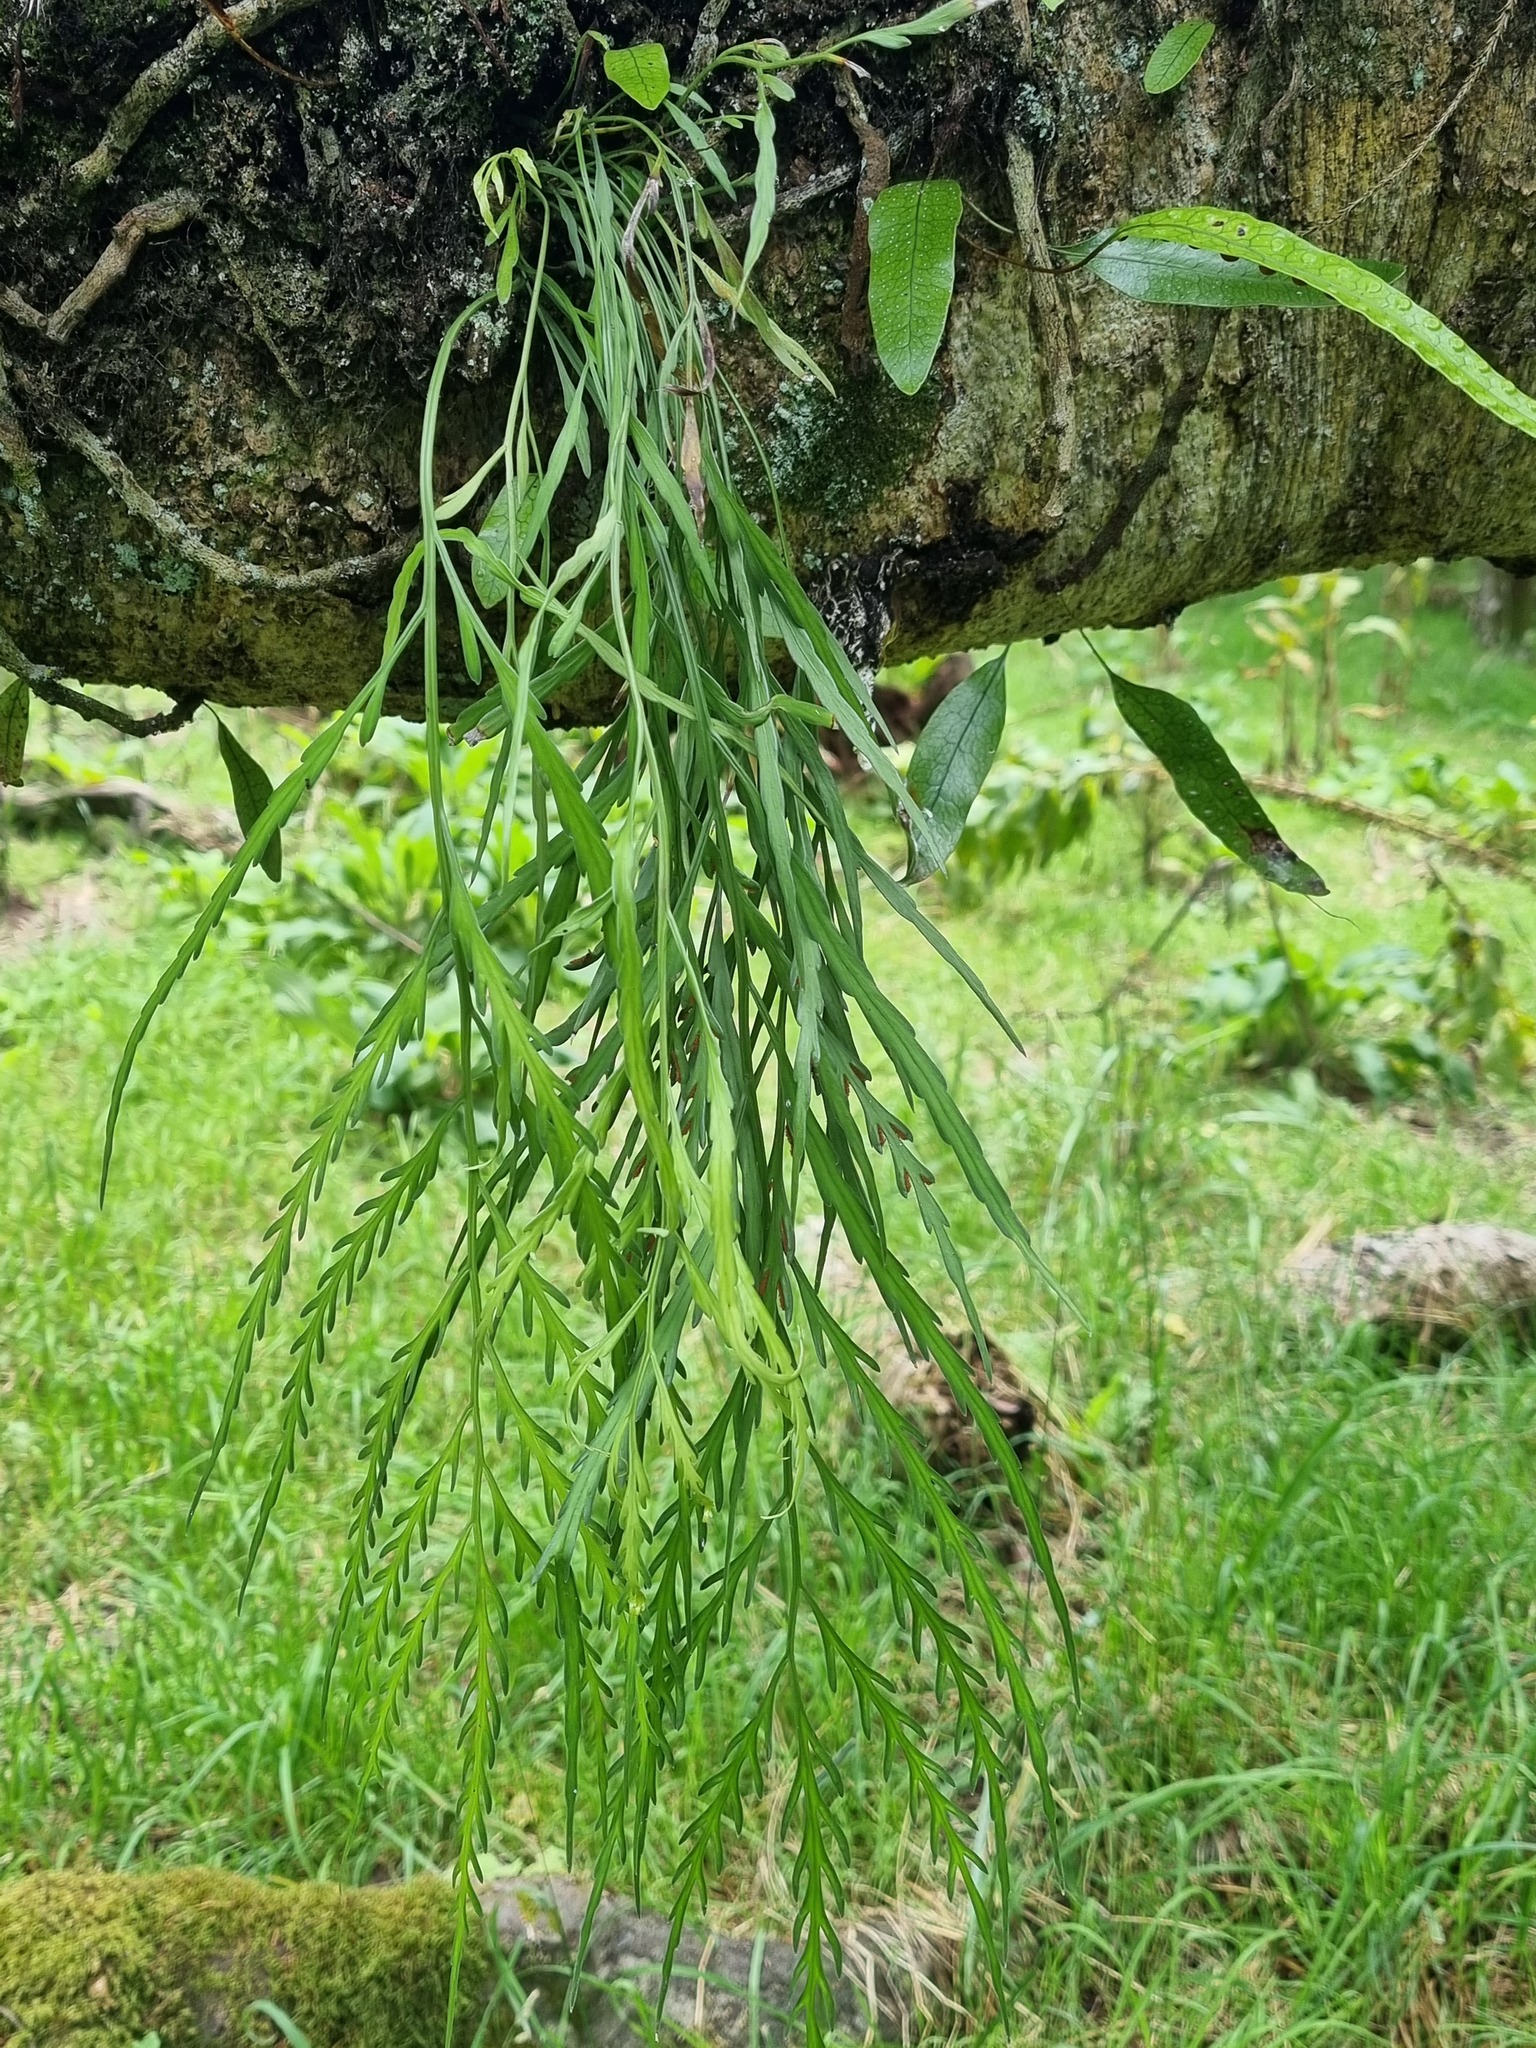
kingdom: Plantae
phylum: Tracheophyta
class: Polypodiopsida
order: Polypodiales
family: Aspleniaceae
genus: Asplenium
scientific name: Asplenium flaccidum
